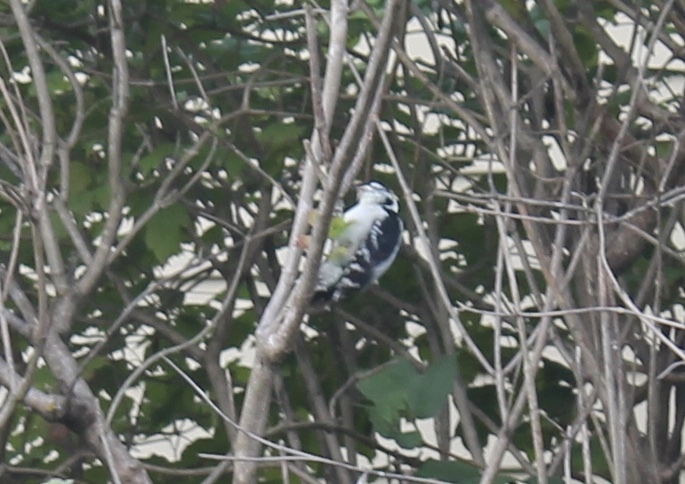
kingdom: Animalia
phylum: Chordata
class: Aves
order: Piciformes
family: Picidae
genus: Dryobates
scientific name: Dryobates pubescens
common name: Downy woodpecker
